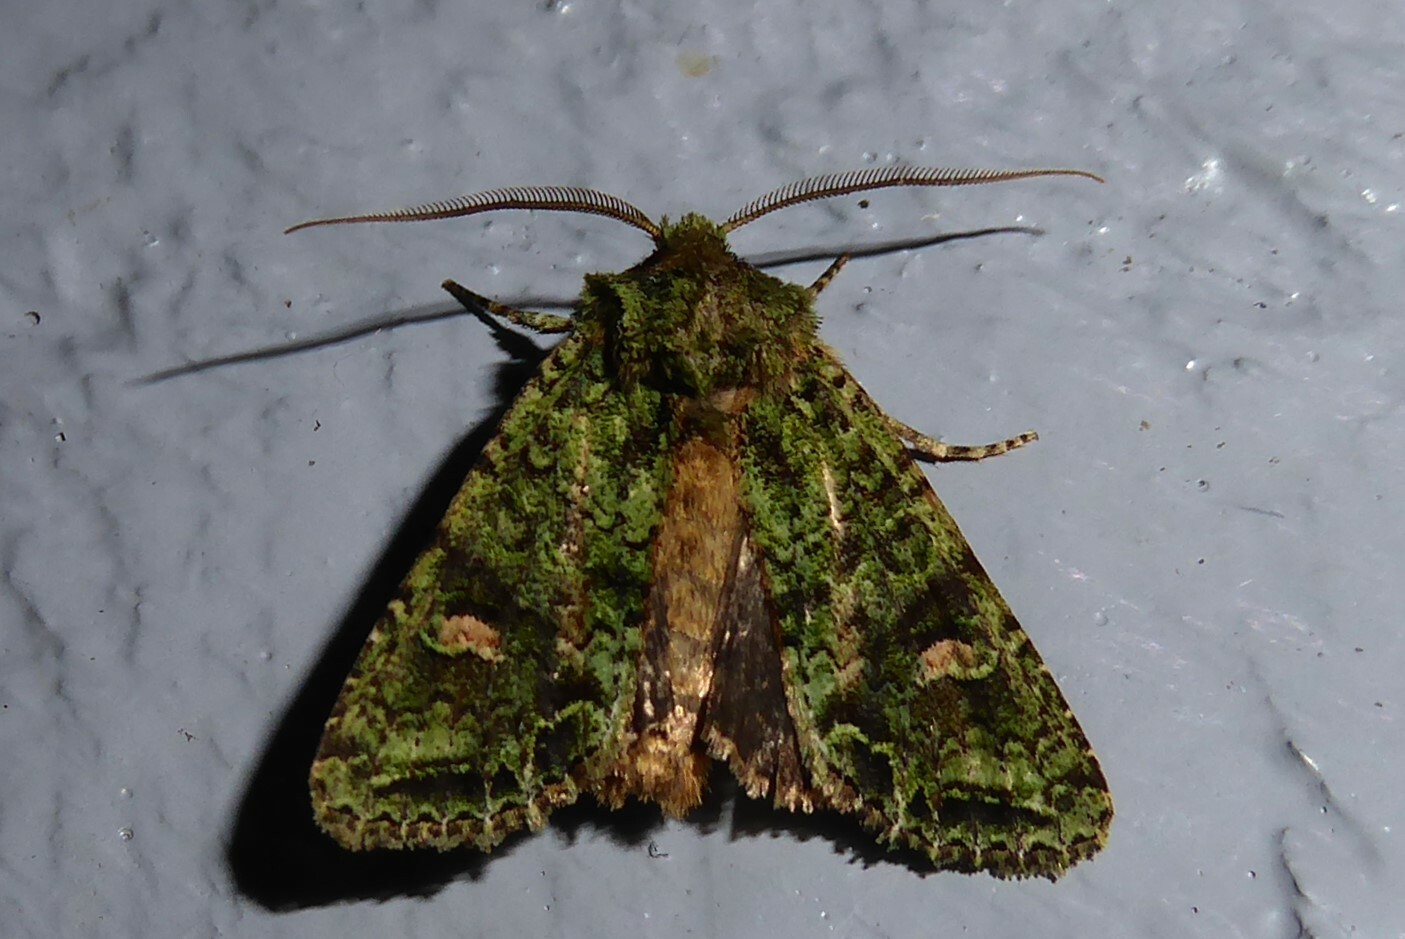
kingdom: Animalia
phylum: Arthropoda
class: Insecta
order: Lepidoptera
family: Noctuidae
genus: Ichneutica
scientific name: Ichneutica
